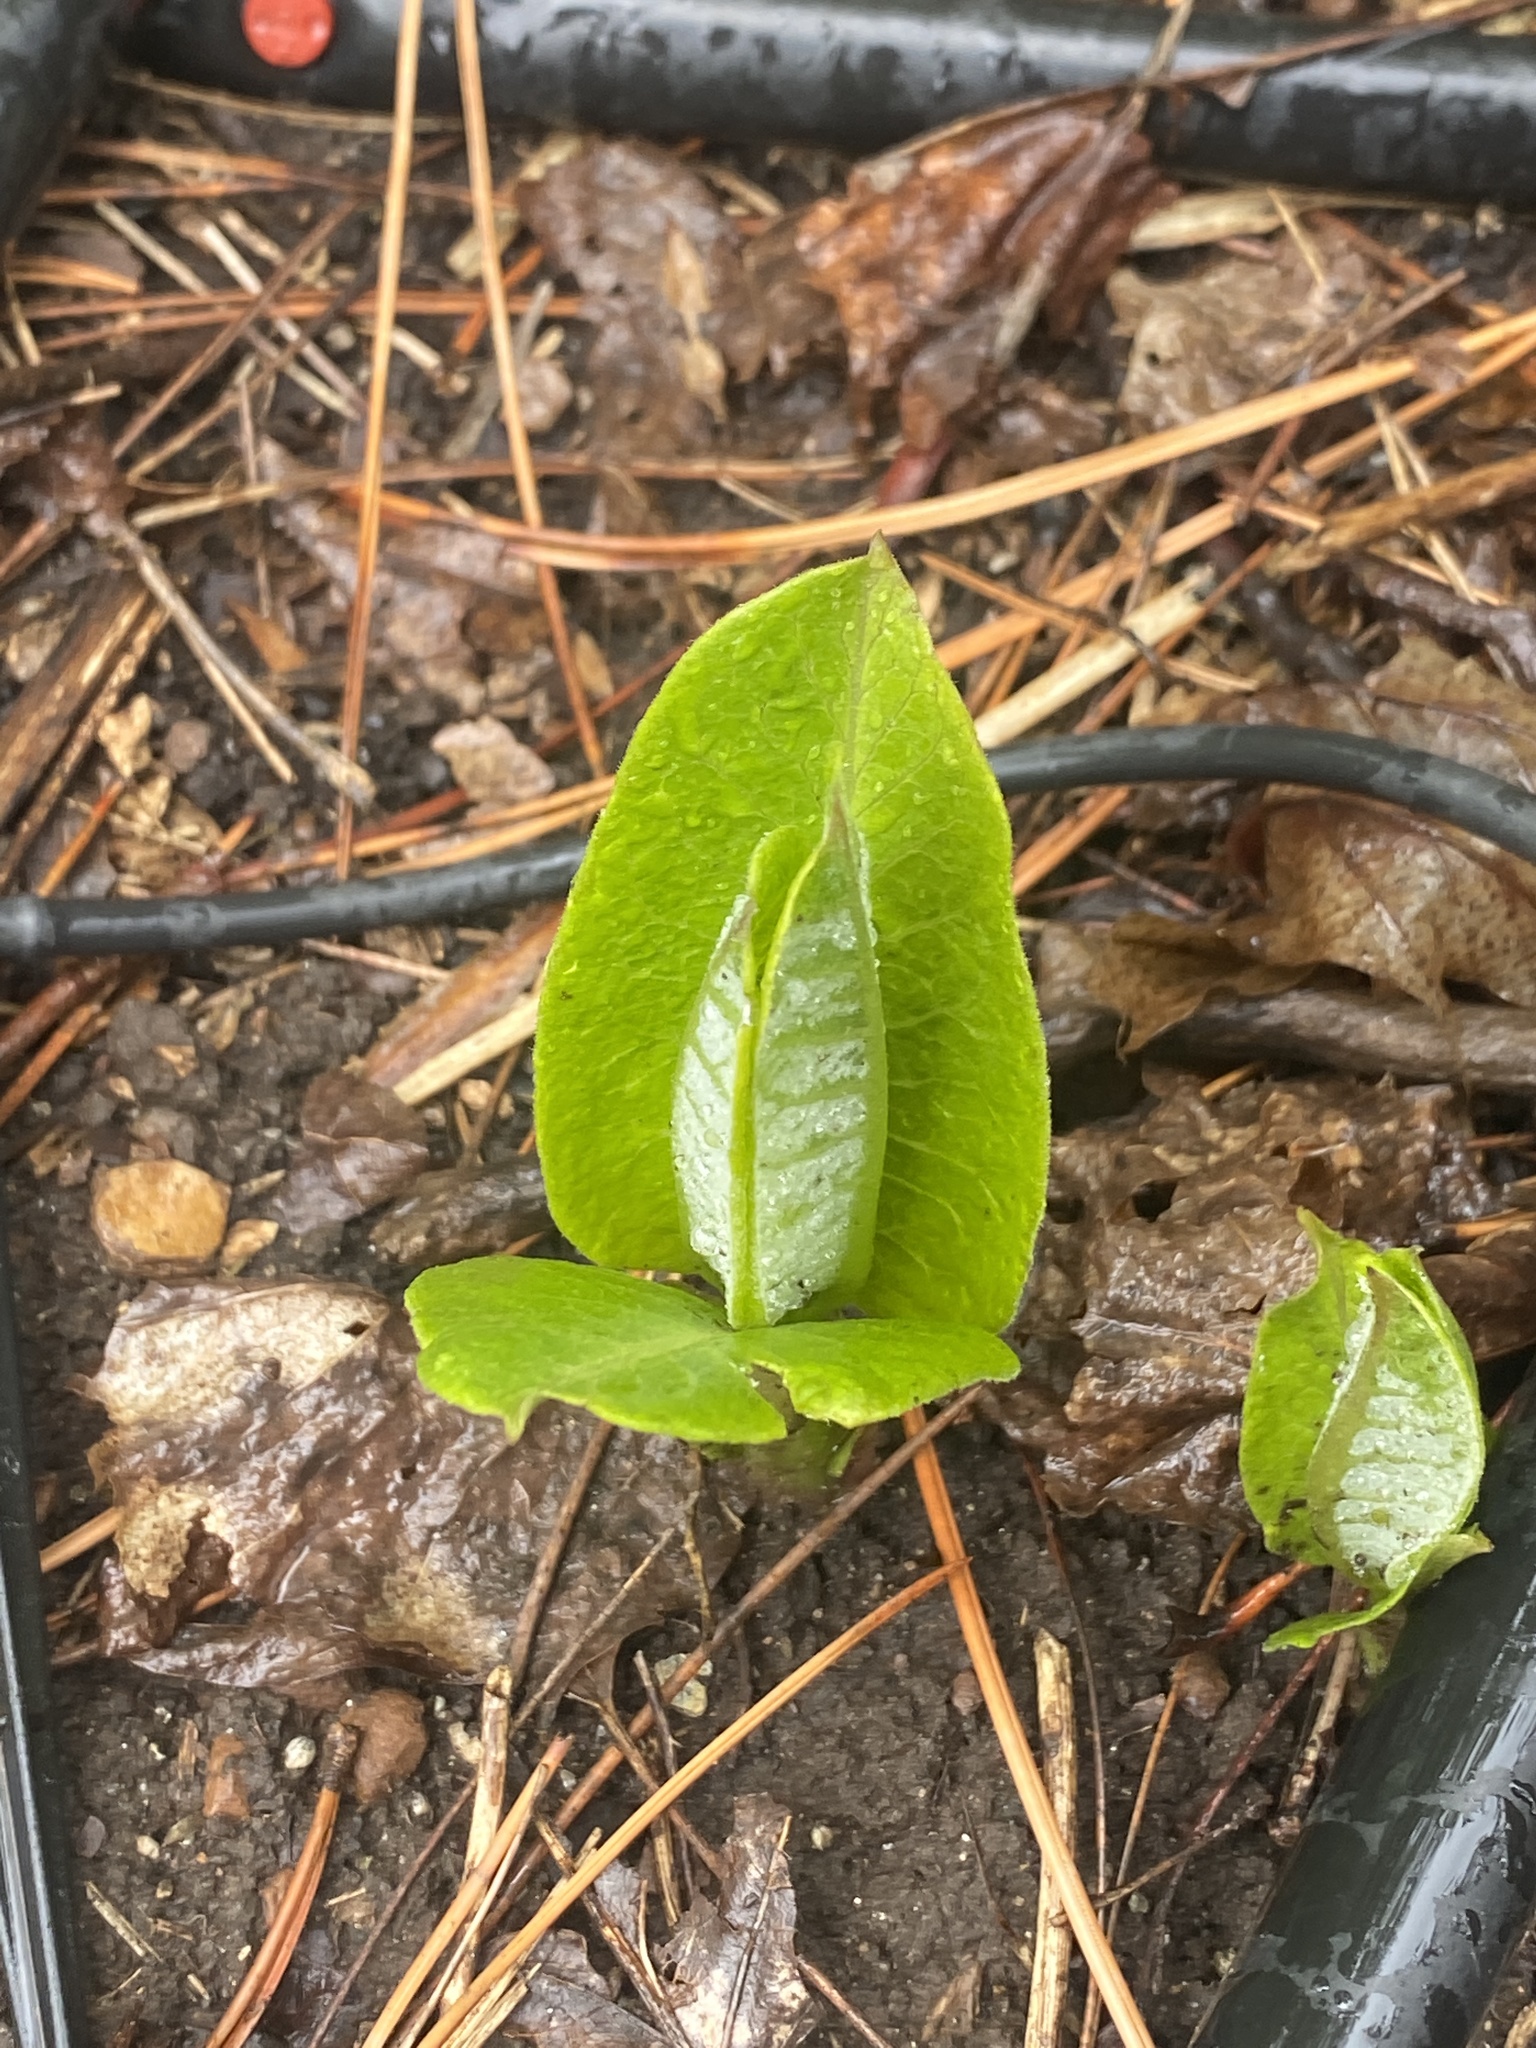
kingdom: Plantae
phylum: Tracheophyta
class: Magnoliopsida
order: Gentianales
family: Apocynaceae
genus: Asclepias
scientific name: Asclepias syriaca
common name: Common milkweed
